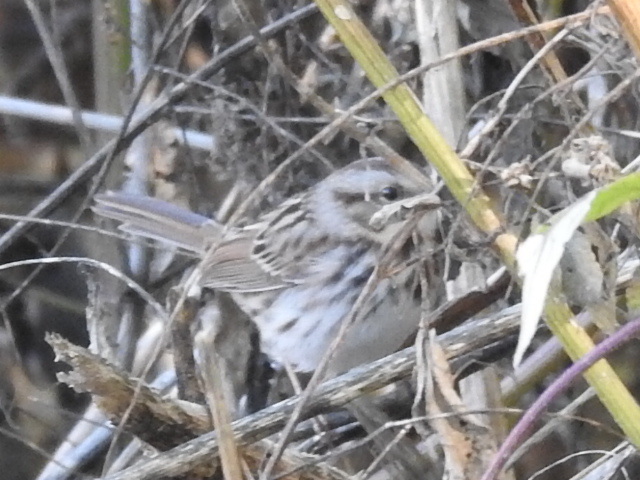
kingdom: Animalia
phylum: Chordata
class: Aves
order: Passeriformes
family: Passerellidae
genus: Melospiza
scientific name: Melospiza melodia
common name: Song sparrow
